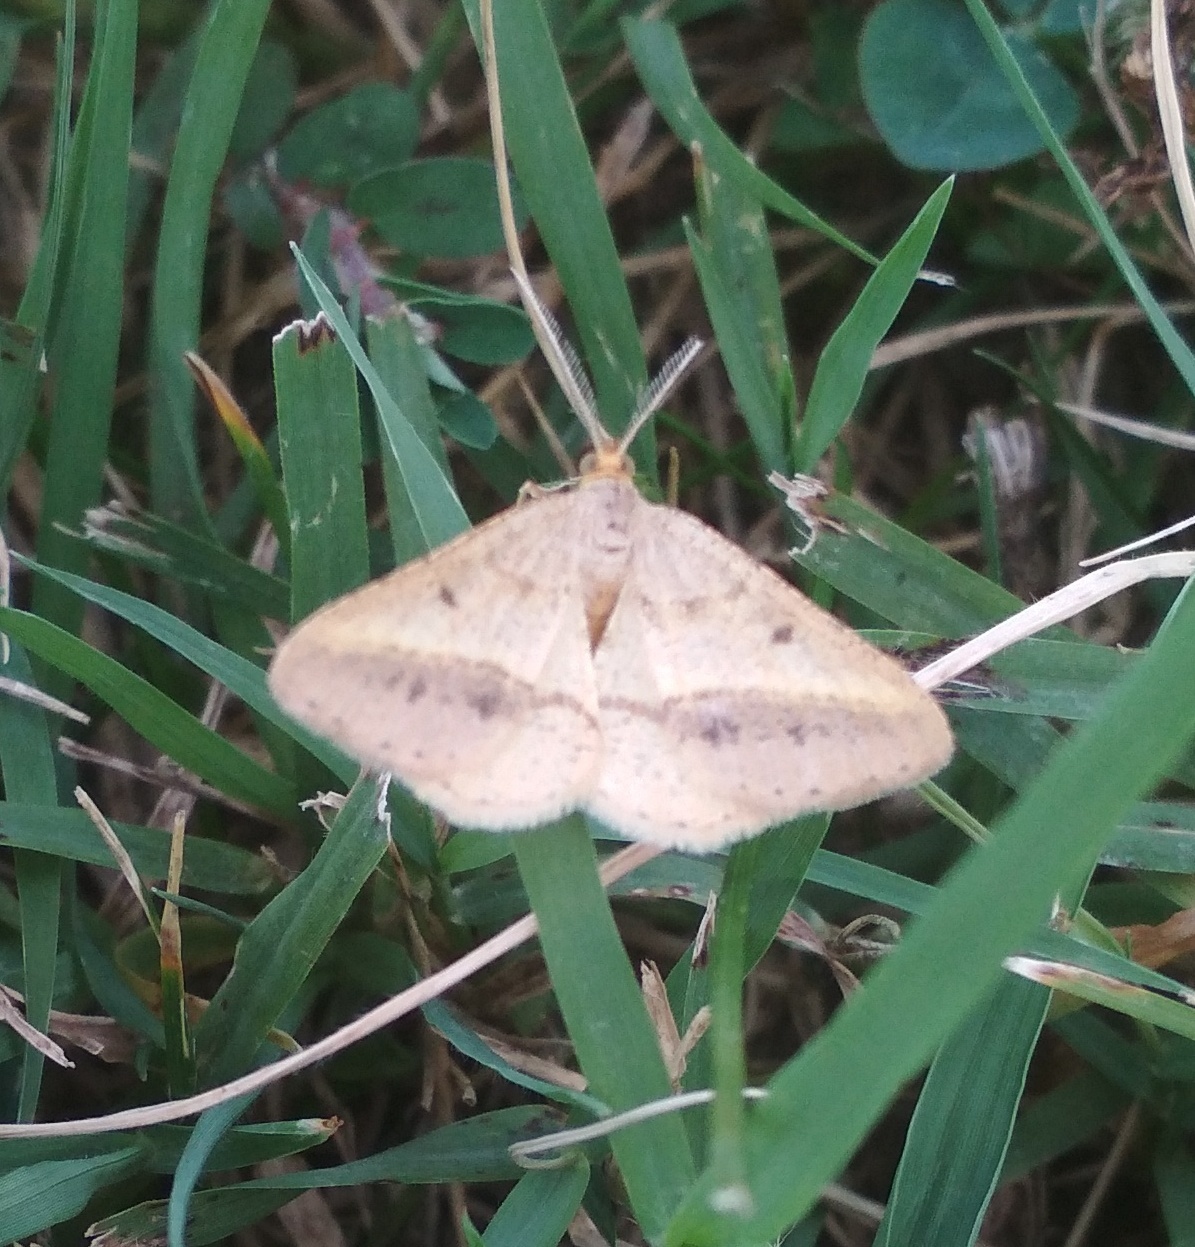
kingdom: Animalia
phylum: Arthropoda
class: Insecta
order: Lepidoptera
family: Geometridae
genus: Tephrina
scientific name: Tephrina arenacearia
